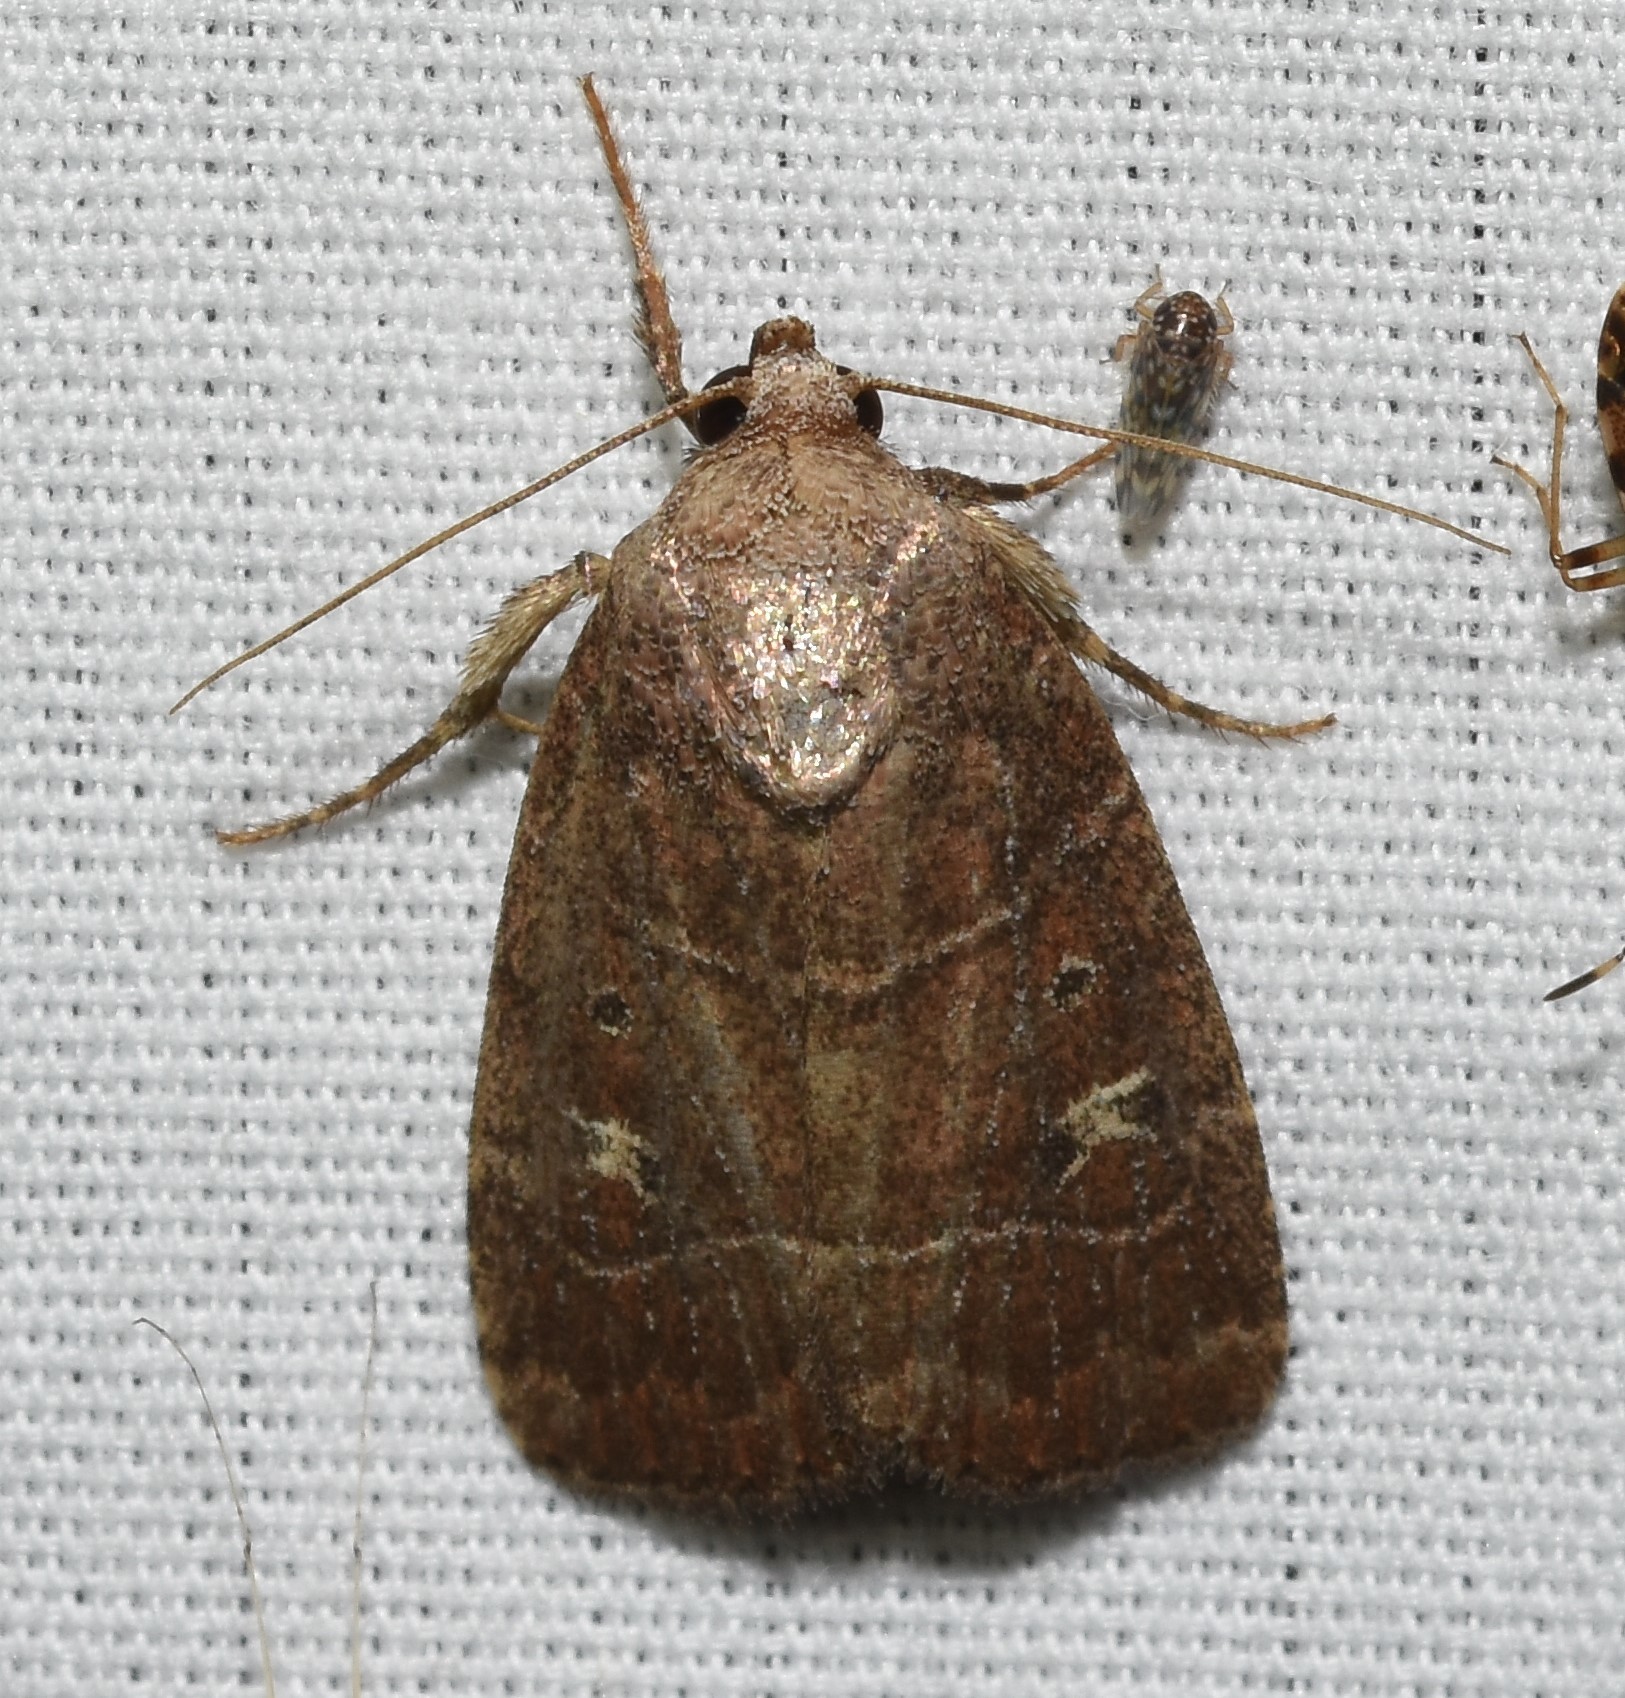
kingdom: Animalia
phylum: Arthropoda
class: Insecta
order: Lepidoptera
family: Noctuidae
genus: Elaphria
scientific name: Elaphria grata
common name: Grateful midget moth
